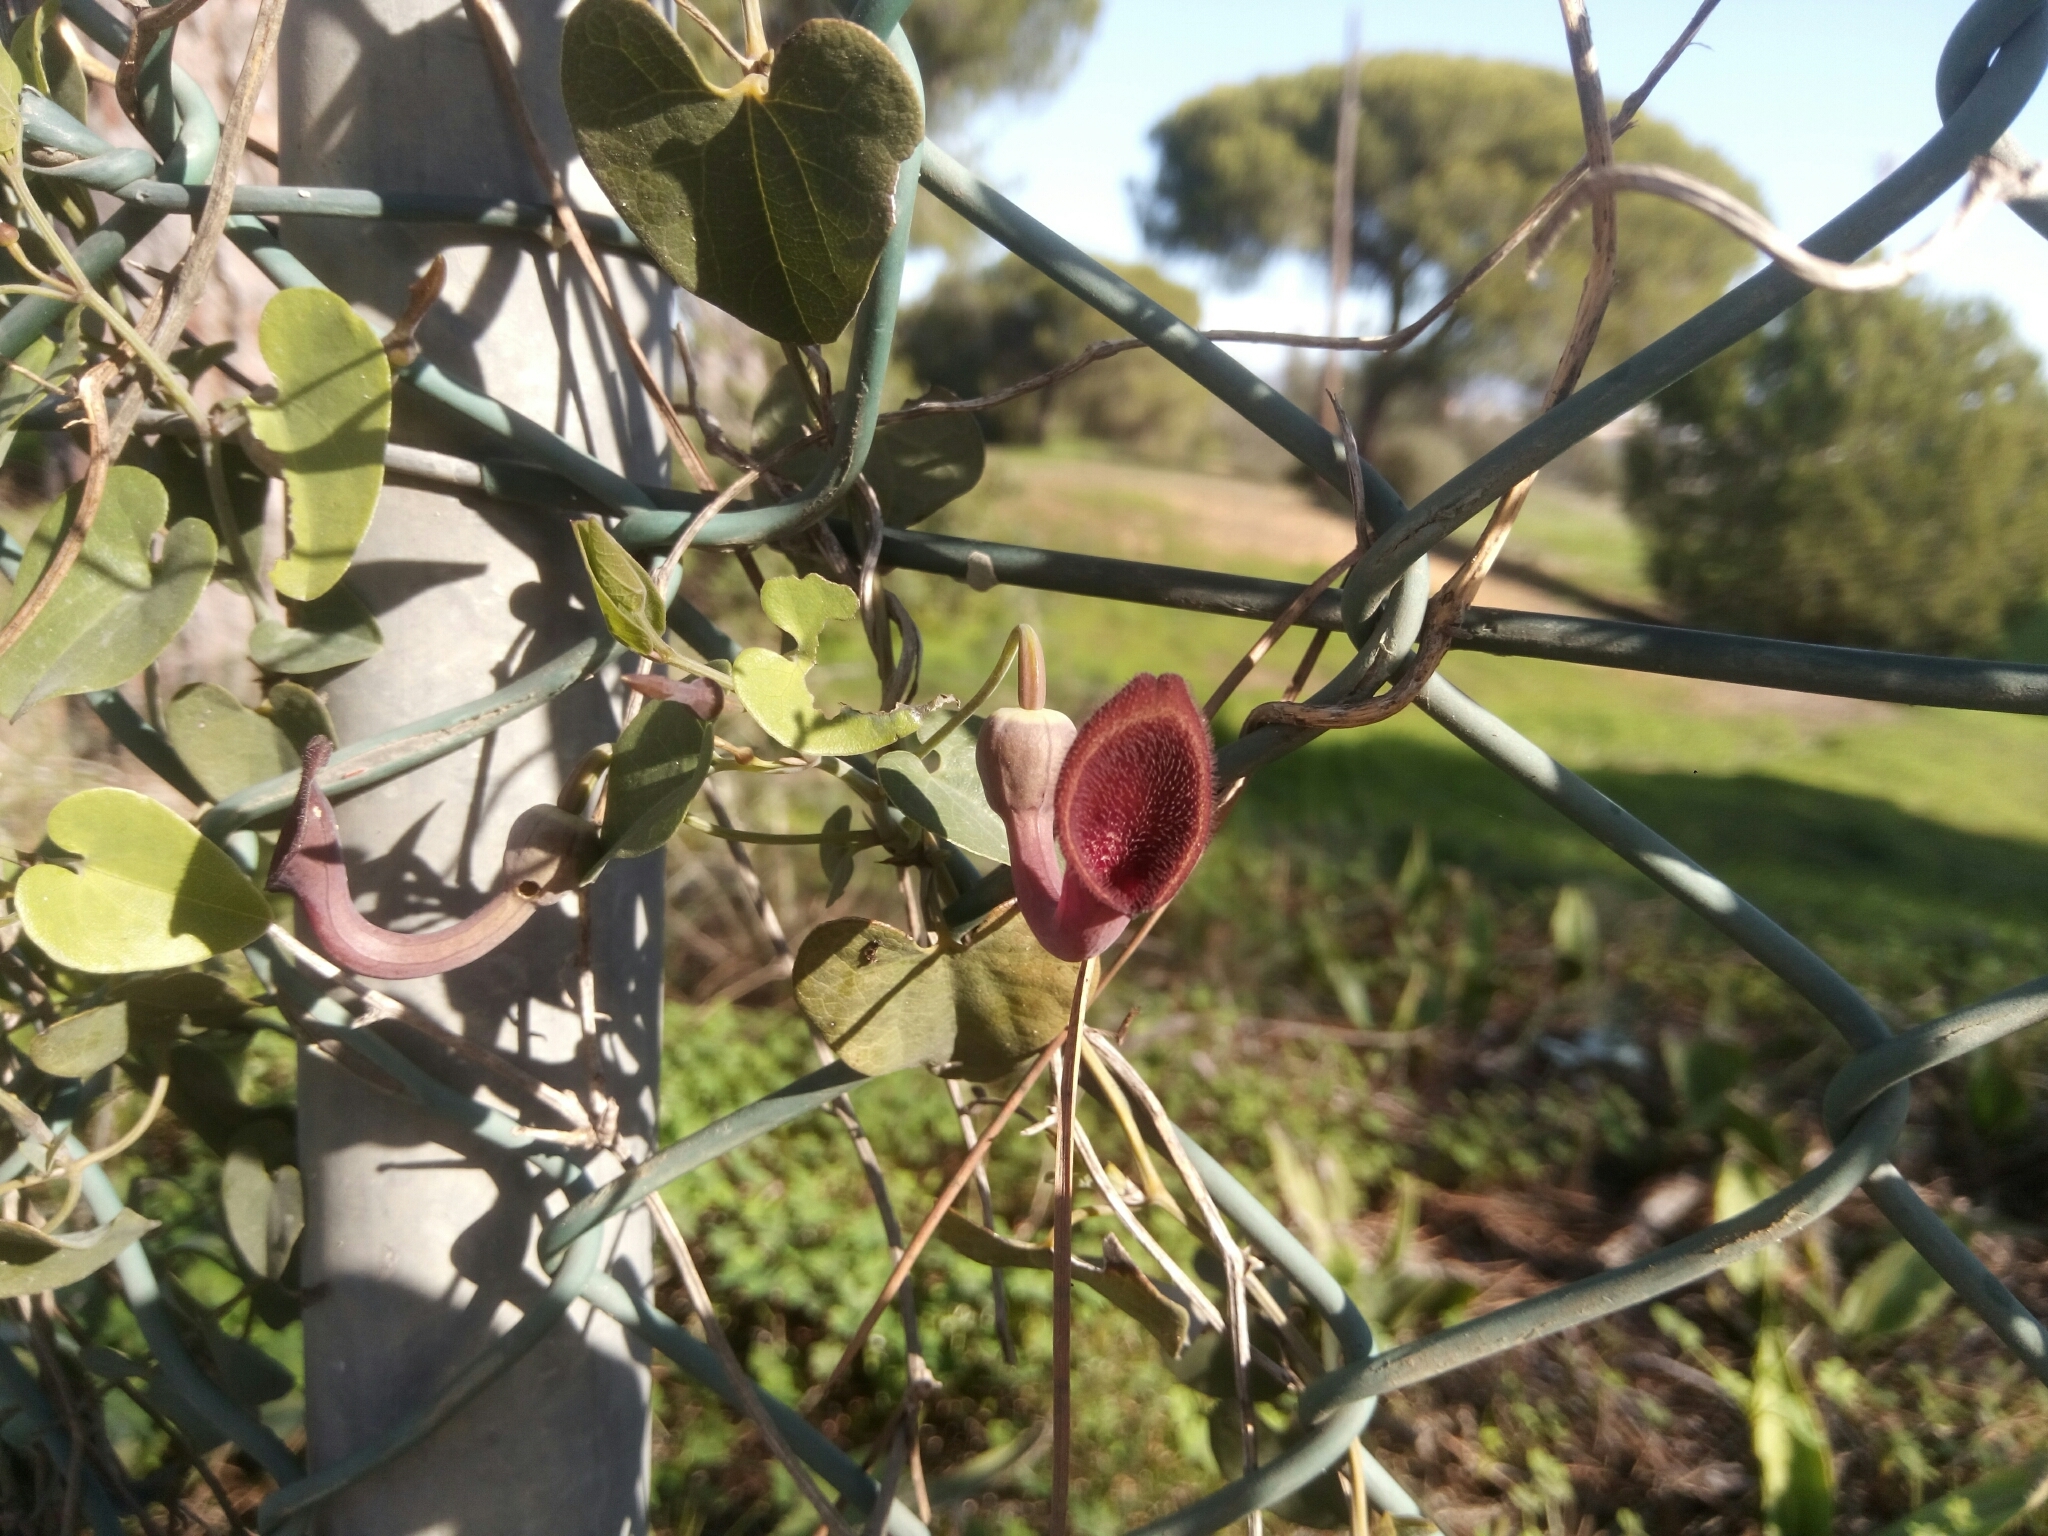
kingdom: Plantae
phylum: Tracheophyta
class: Magnoliopsida
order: Piperales
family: Aristolochiaceae
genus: Aristolochia
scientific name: Aristolochia baetica
